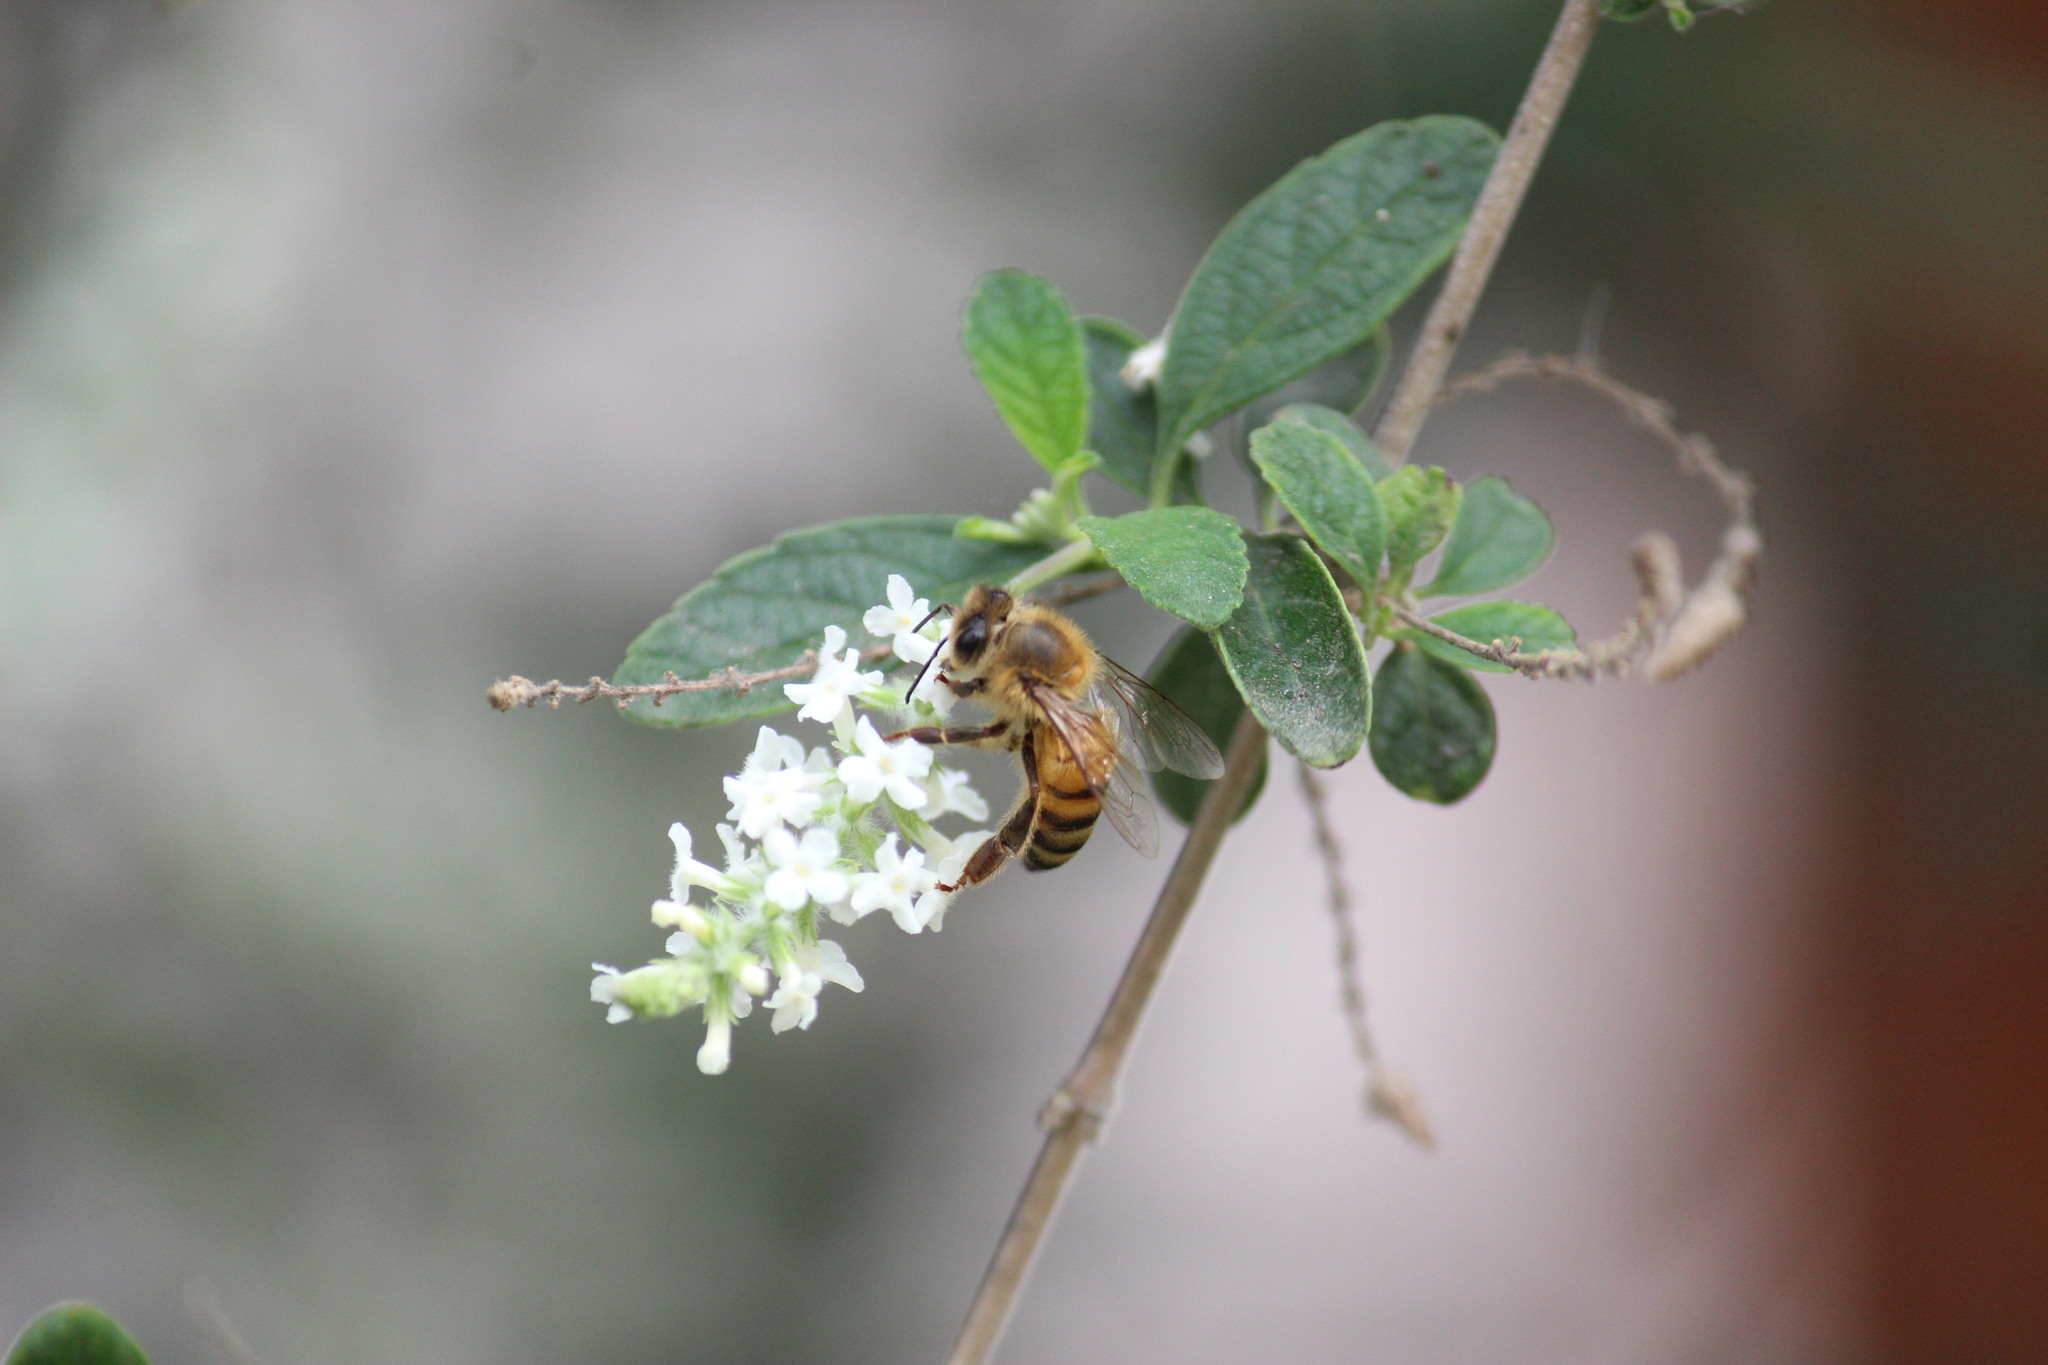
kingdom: Animalia
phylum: Arthropoda
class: Insecta
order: Hymenoptera
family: Apidae
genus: Apis
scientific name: Apis mellifera
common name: Honey bee
